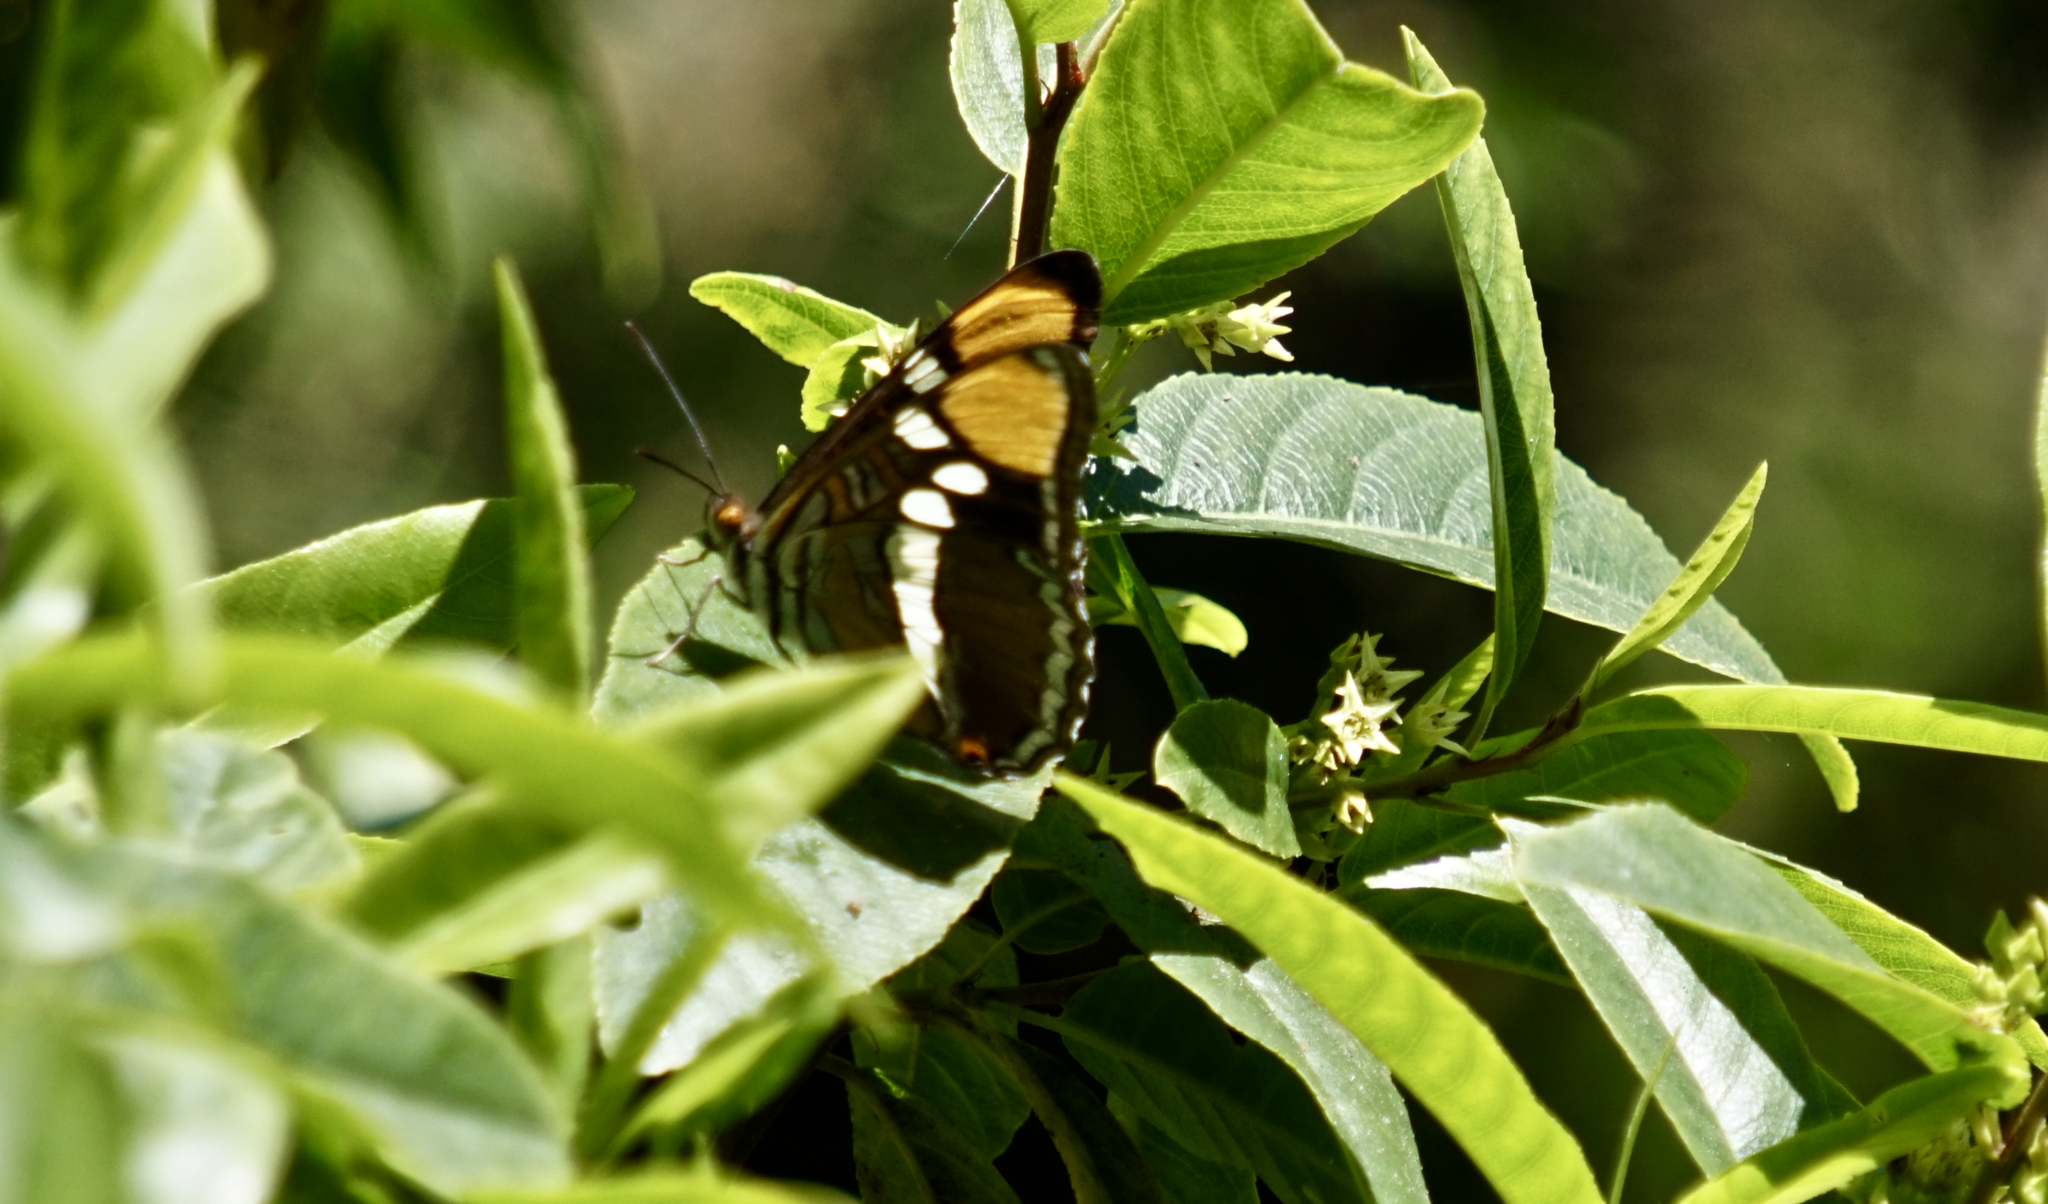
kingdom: Animalia
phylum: Arthropoda
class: Insecta
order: Lepidoptera
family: Nymphalidae
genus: Limenitis
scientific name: Limenitis bredowii
